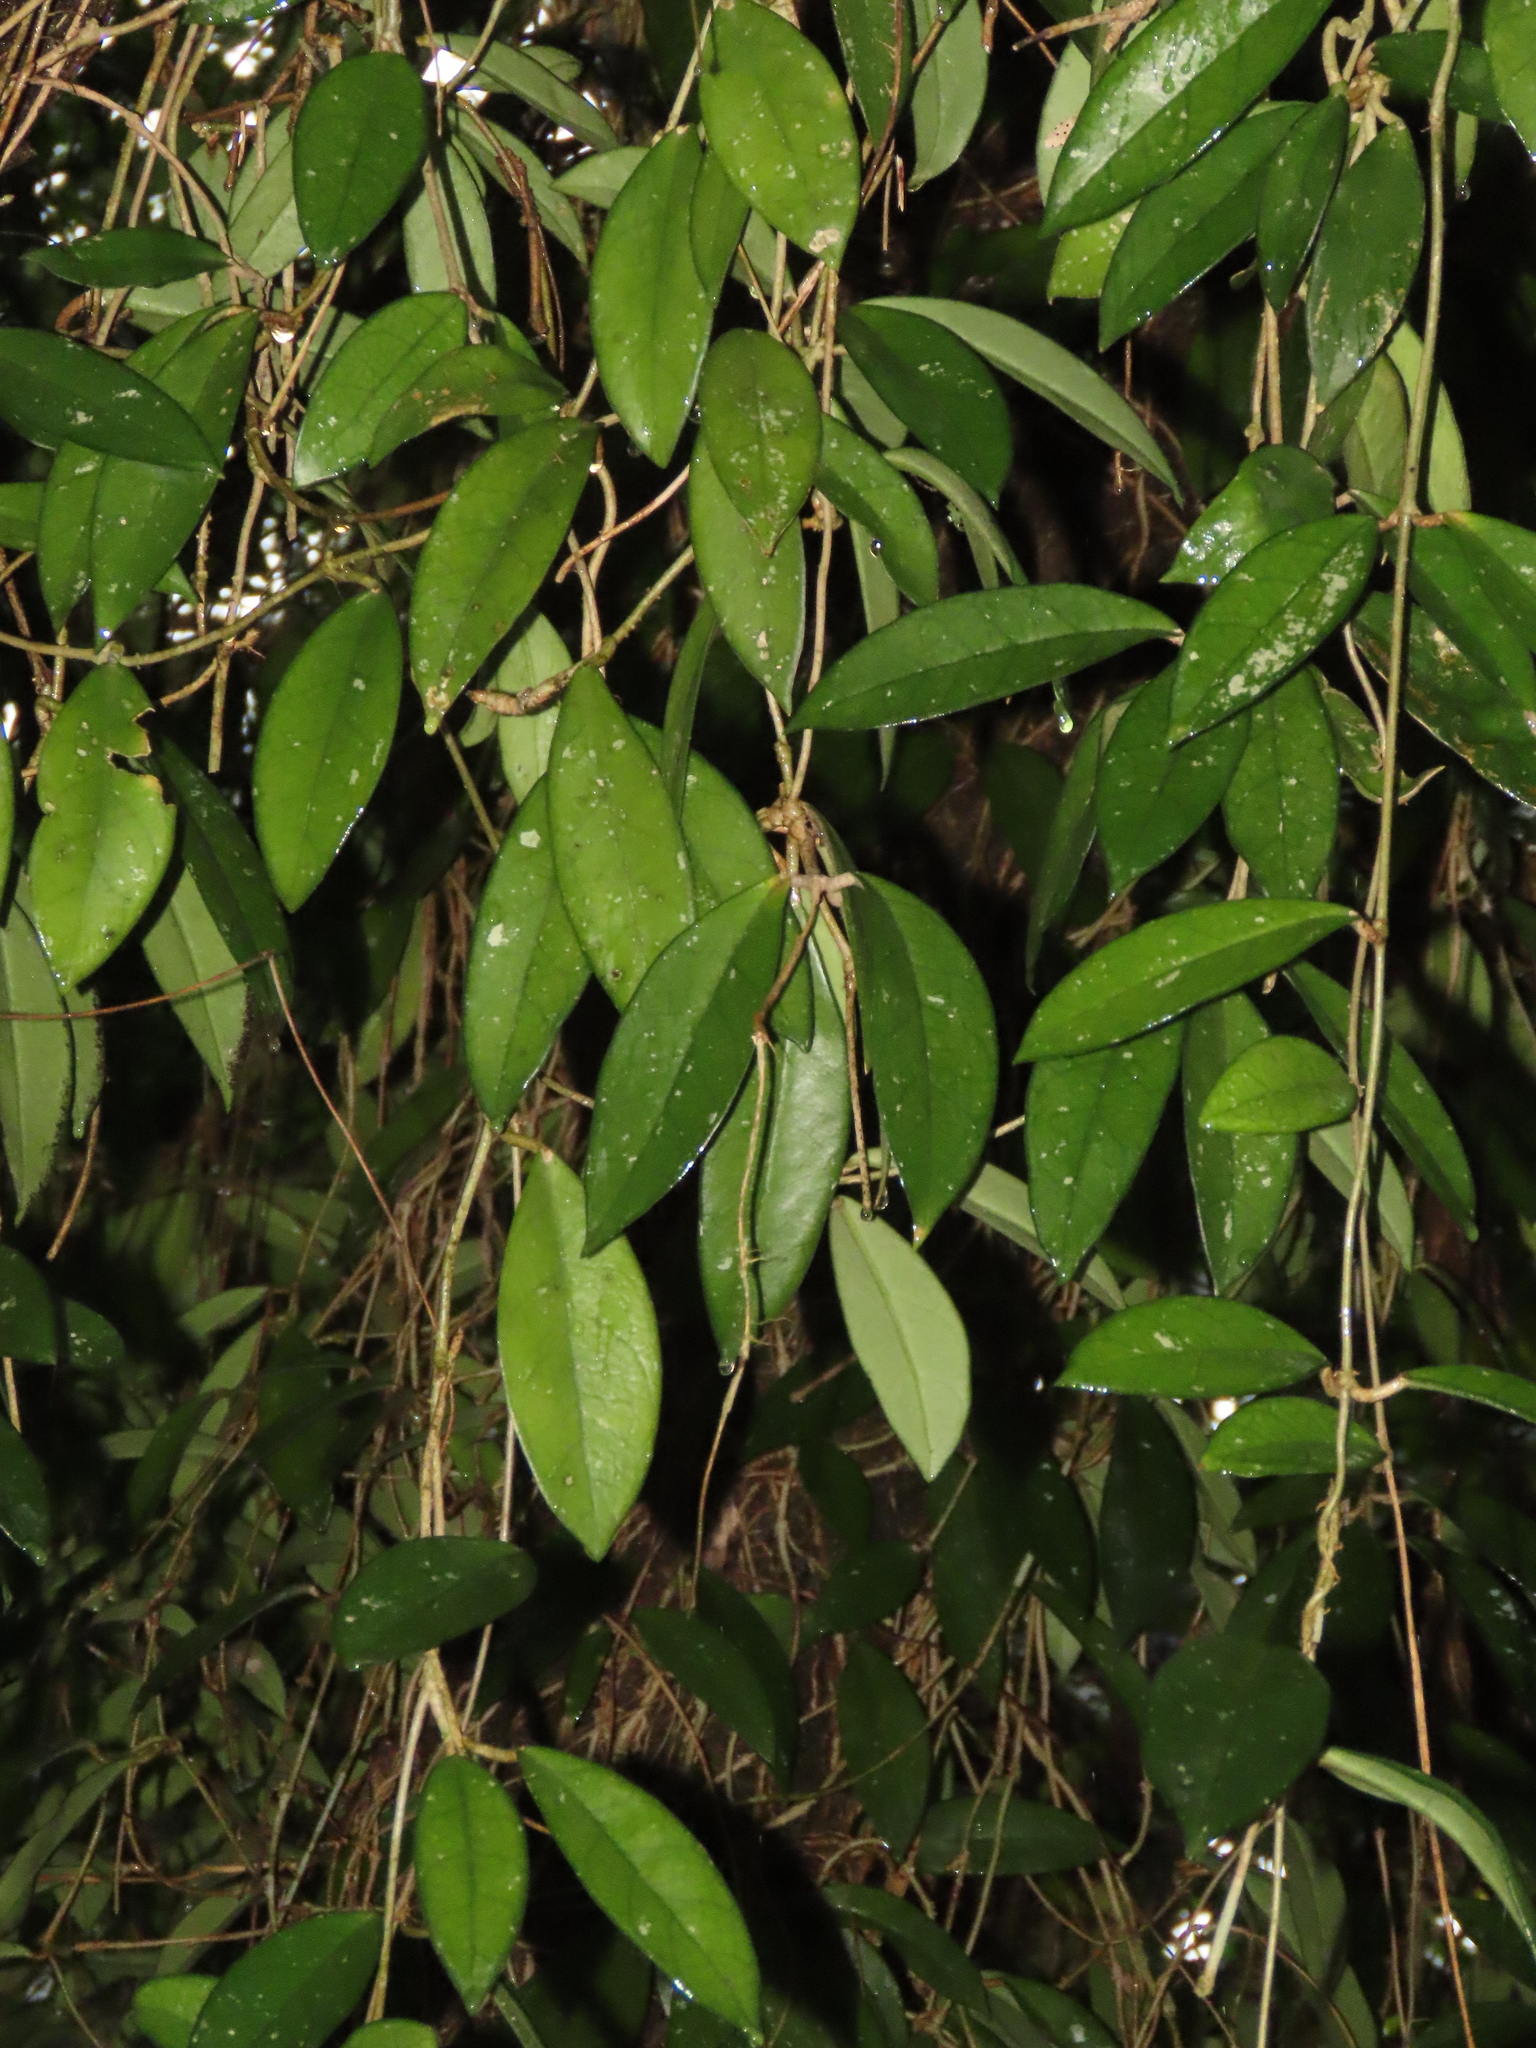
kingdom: Plantae
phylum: Tracheophyta
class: Magnoliopsida
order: Gentianales
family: Apocynaceae
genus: Hoya
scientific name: Hoya carnosa
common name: Honeyplant
